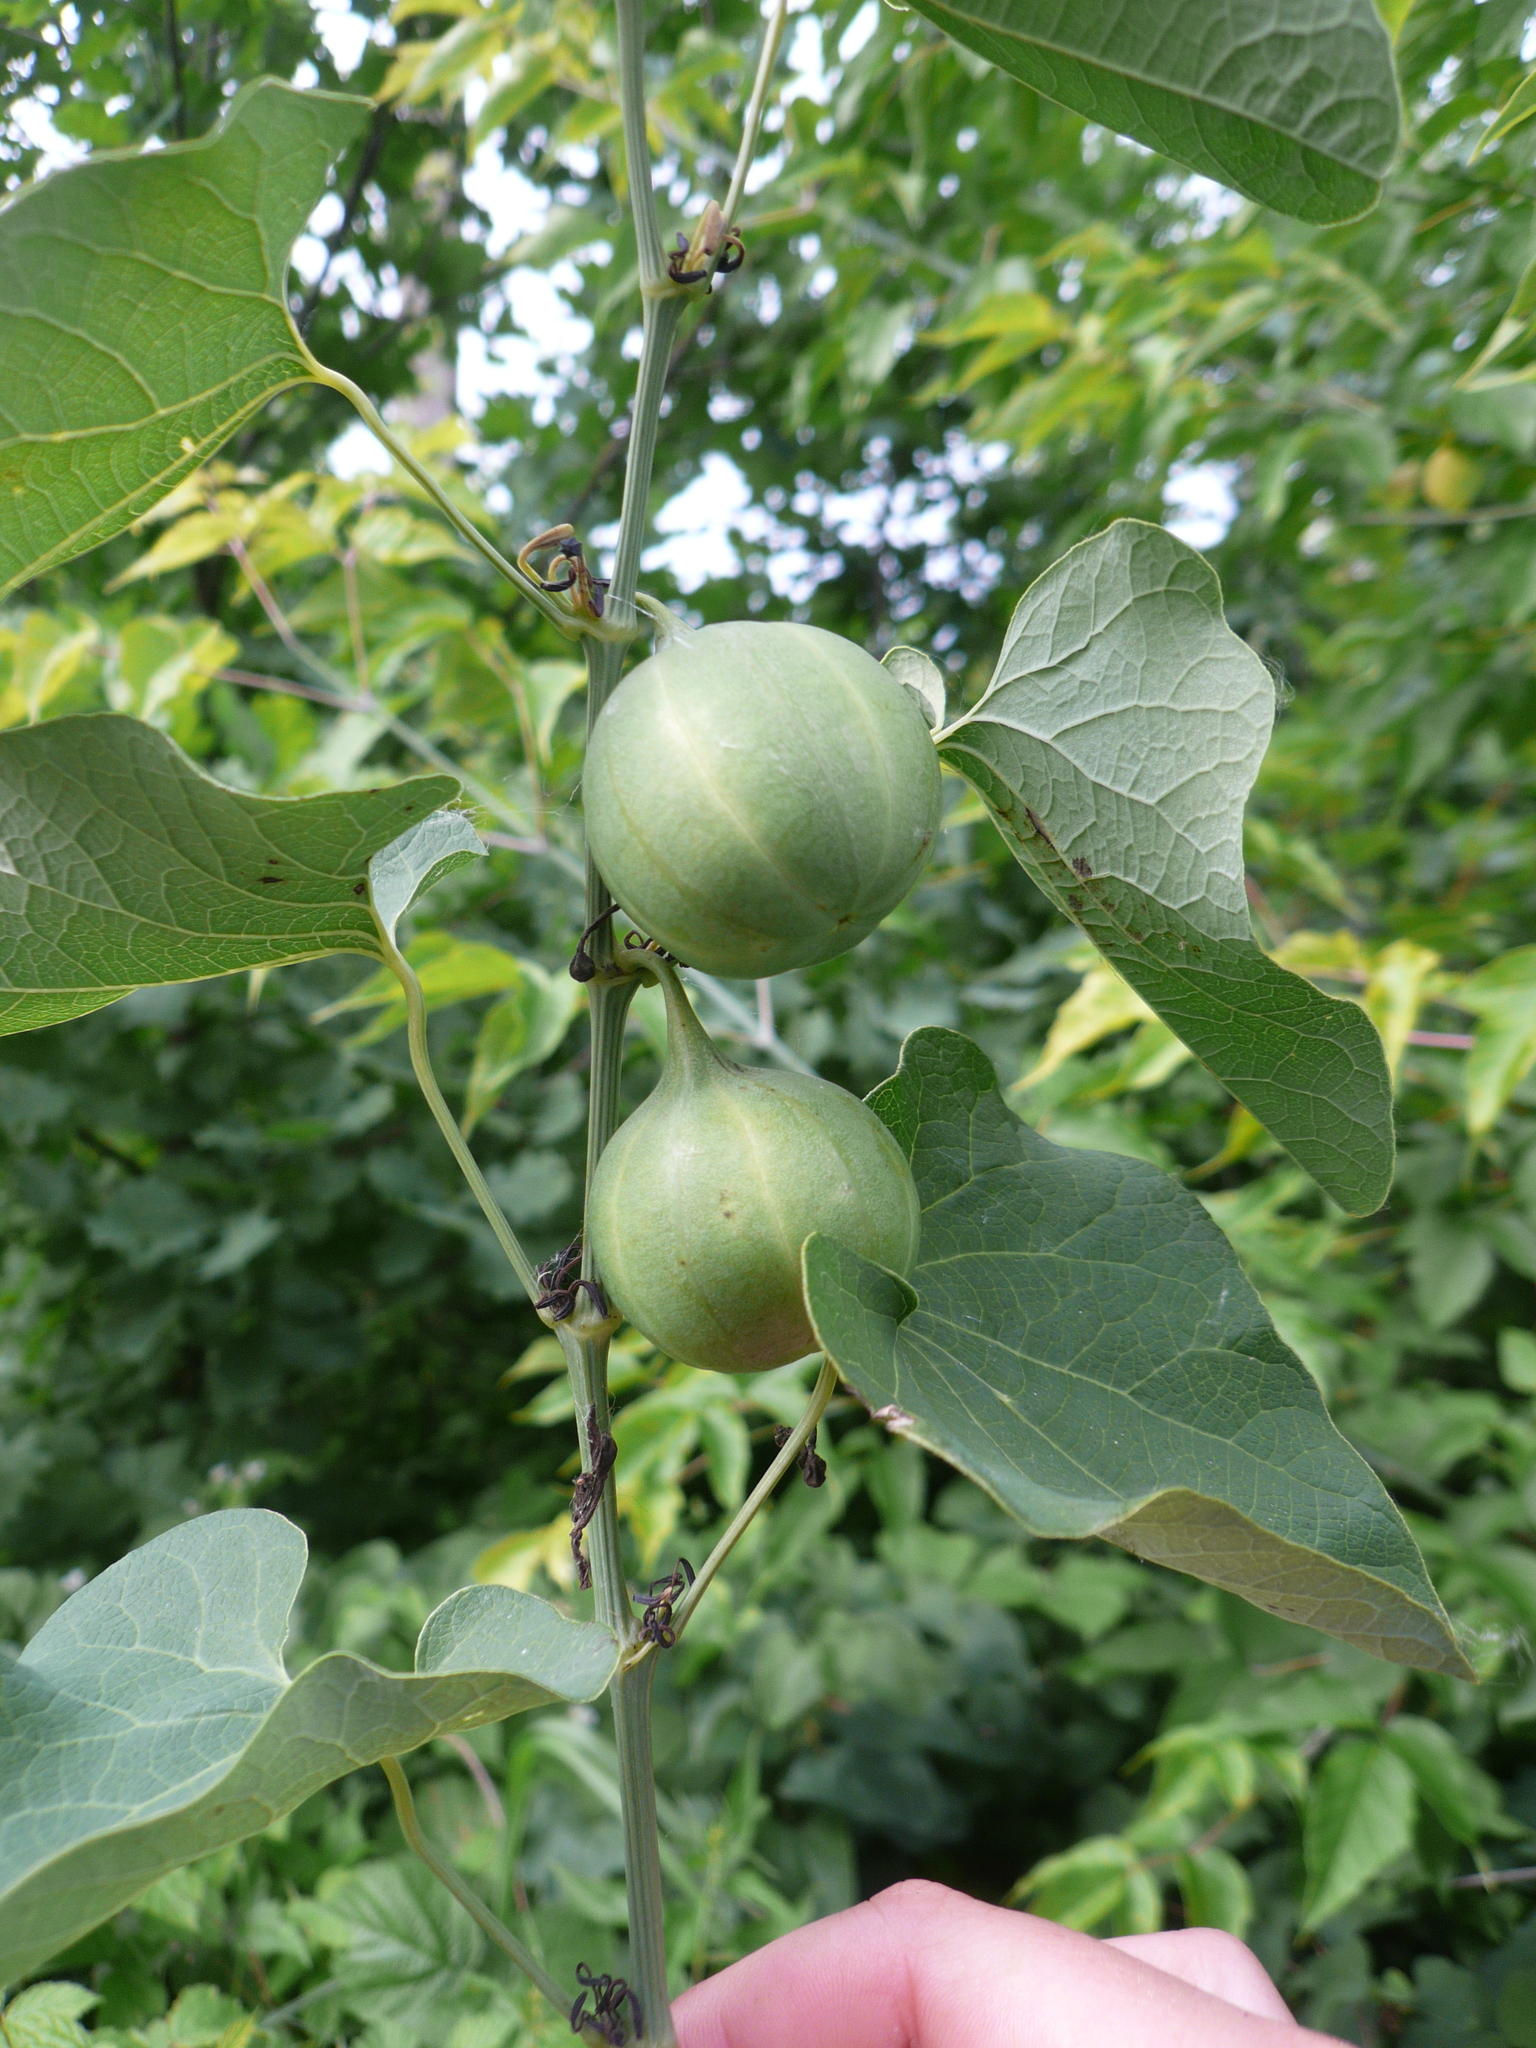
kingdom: Plantae
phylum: Tracheophyta
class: Magnoliopsida
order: Piperales
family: Aristolochiaceae
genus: Aristolochia
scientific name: Aristolochia clematitis
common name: Birthwort
